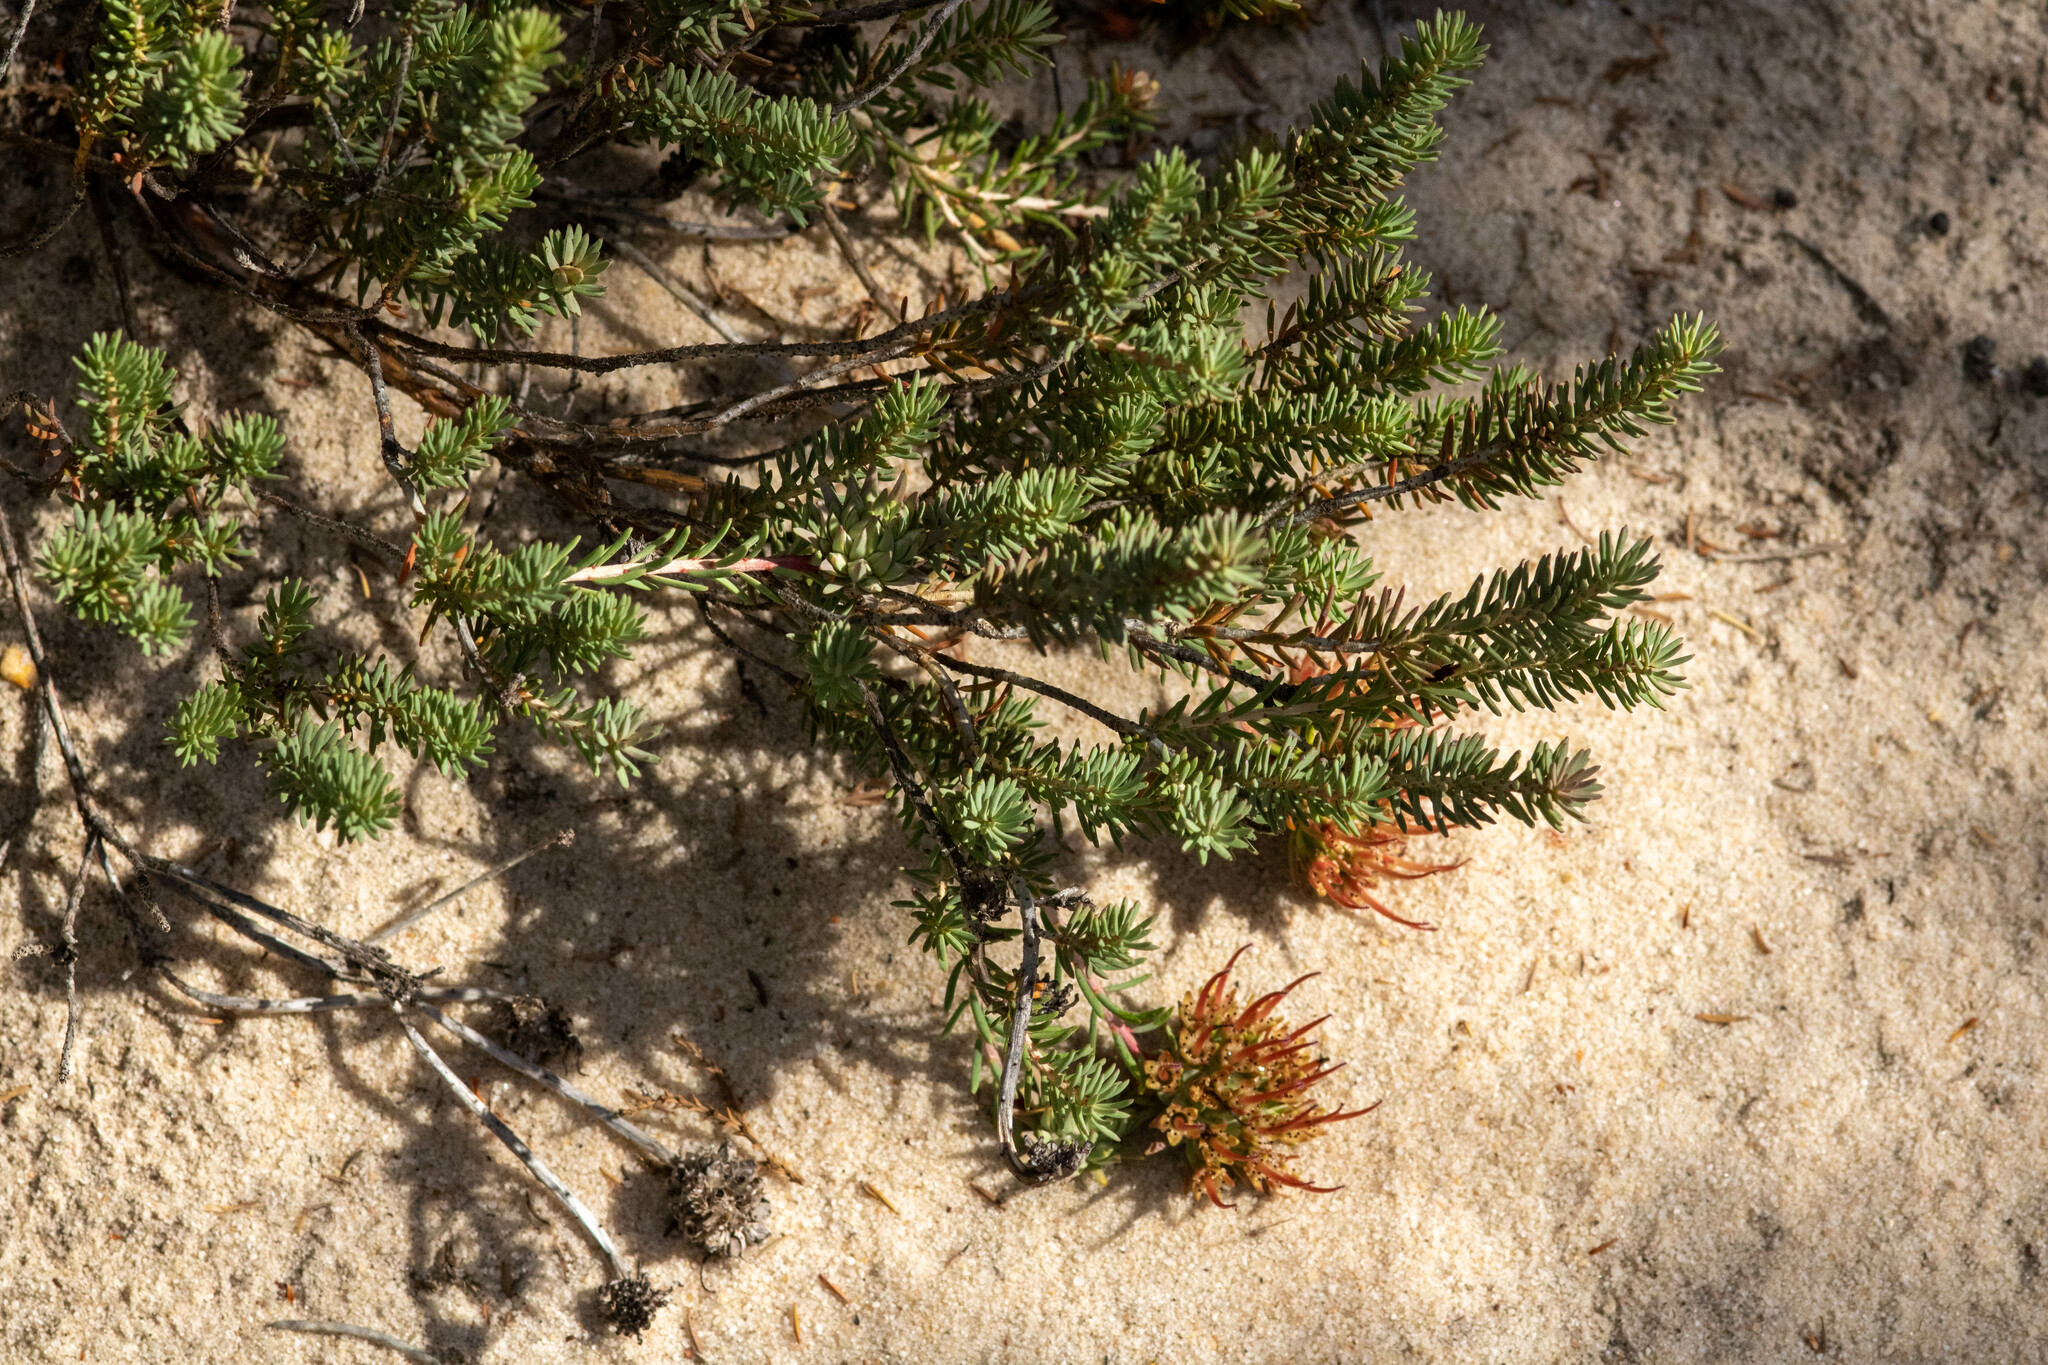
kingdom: Plantae
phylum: Tracheophyta
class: Magnoliopsida
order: Myrtales
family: Myrtaceae
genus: Darwinia
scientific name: Darwinia virescens
